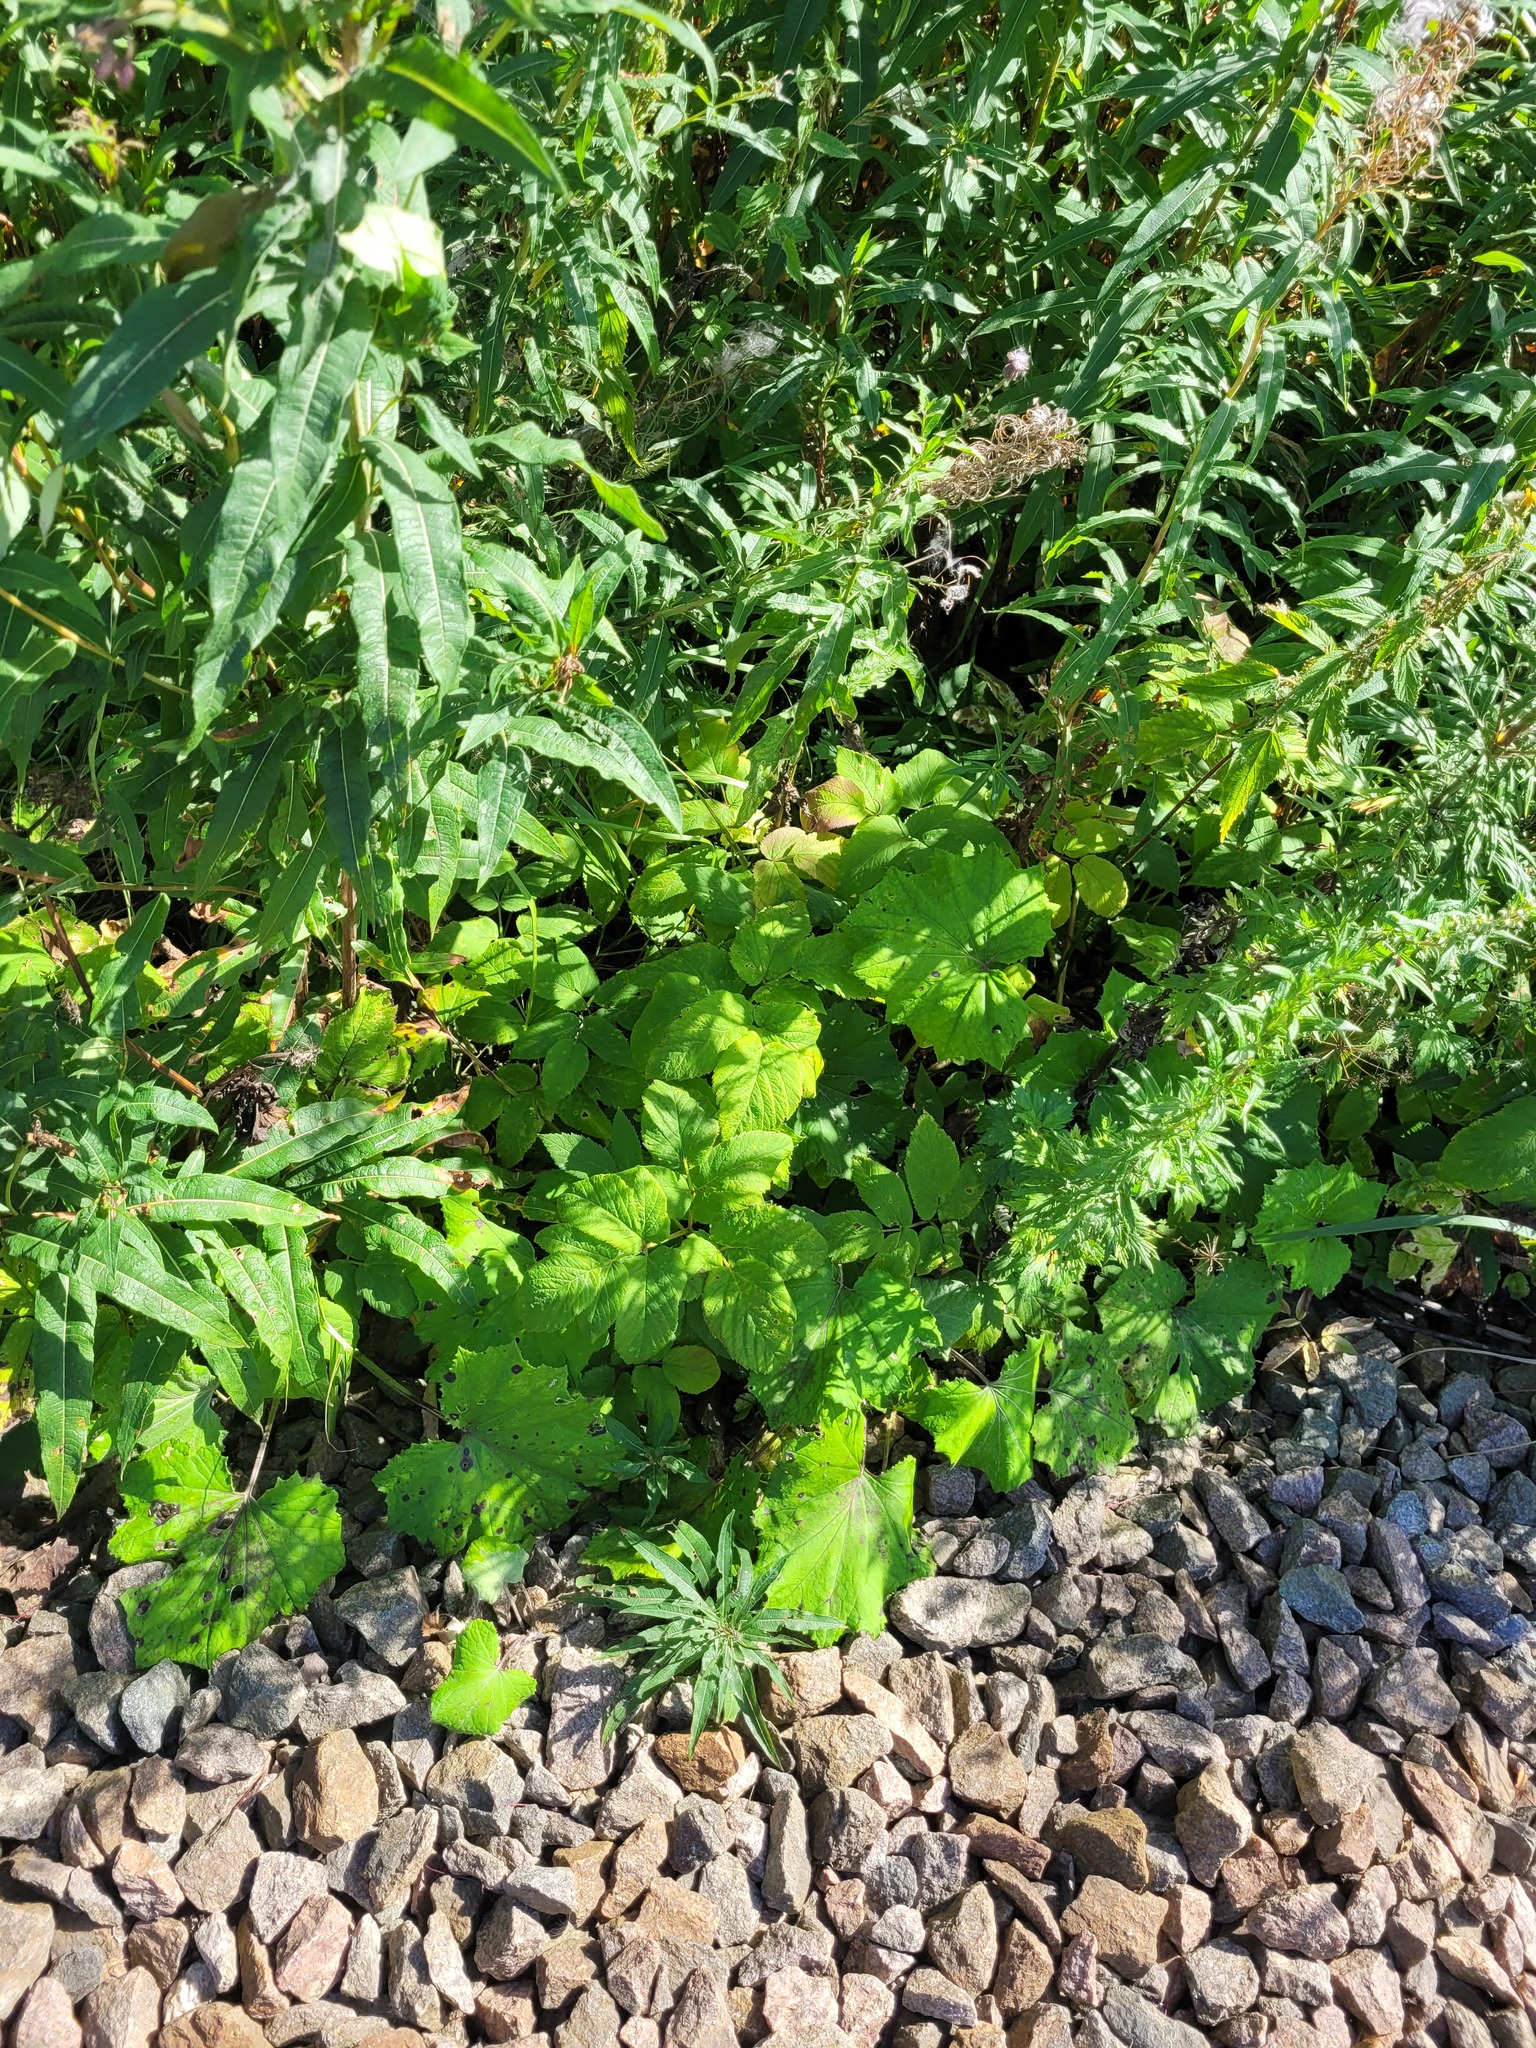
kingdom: Plantae
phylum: Tracheophyta
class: Magnoliopsida
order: Apiales
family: Apiaceae
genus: Aegopodium
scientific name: Aegopodium podagraria
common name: Ground-elder
